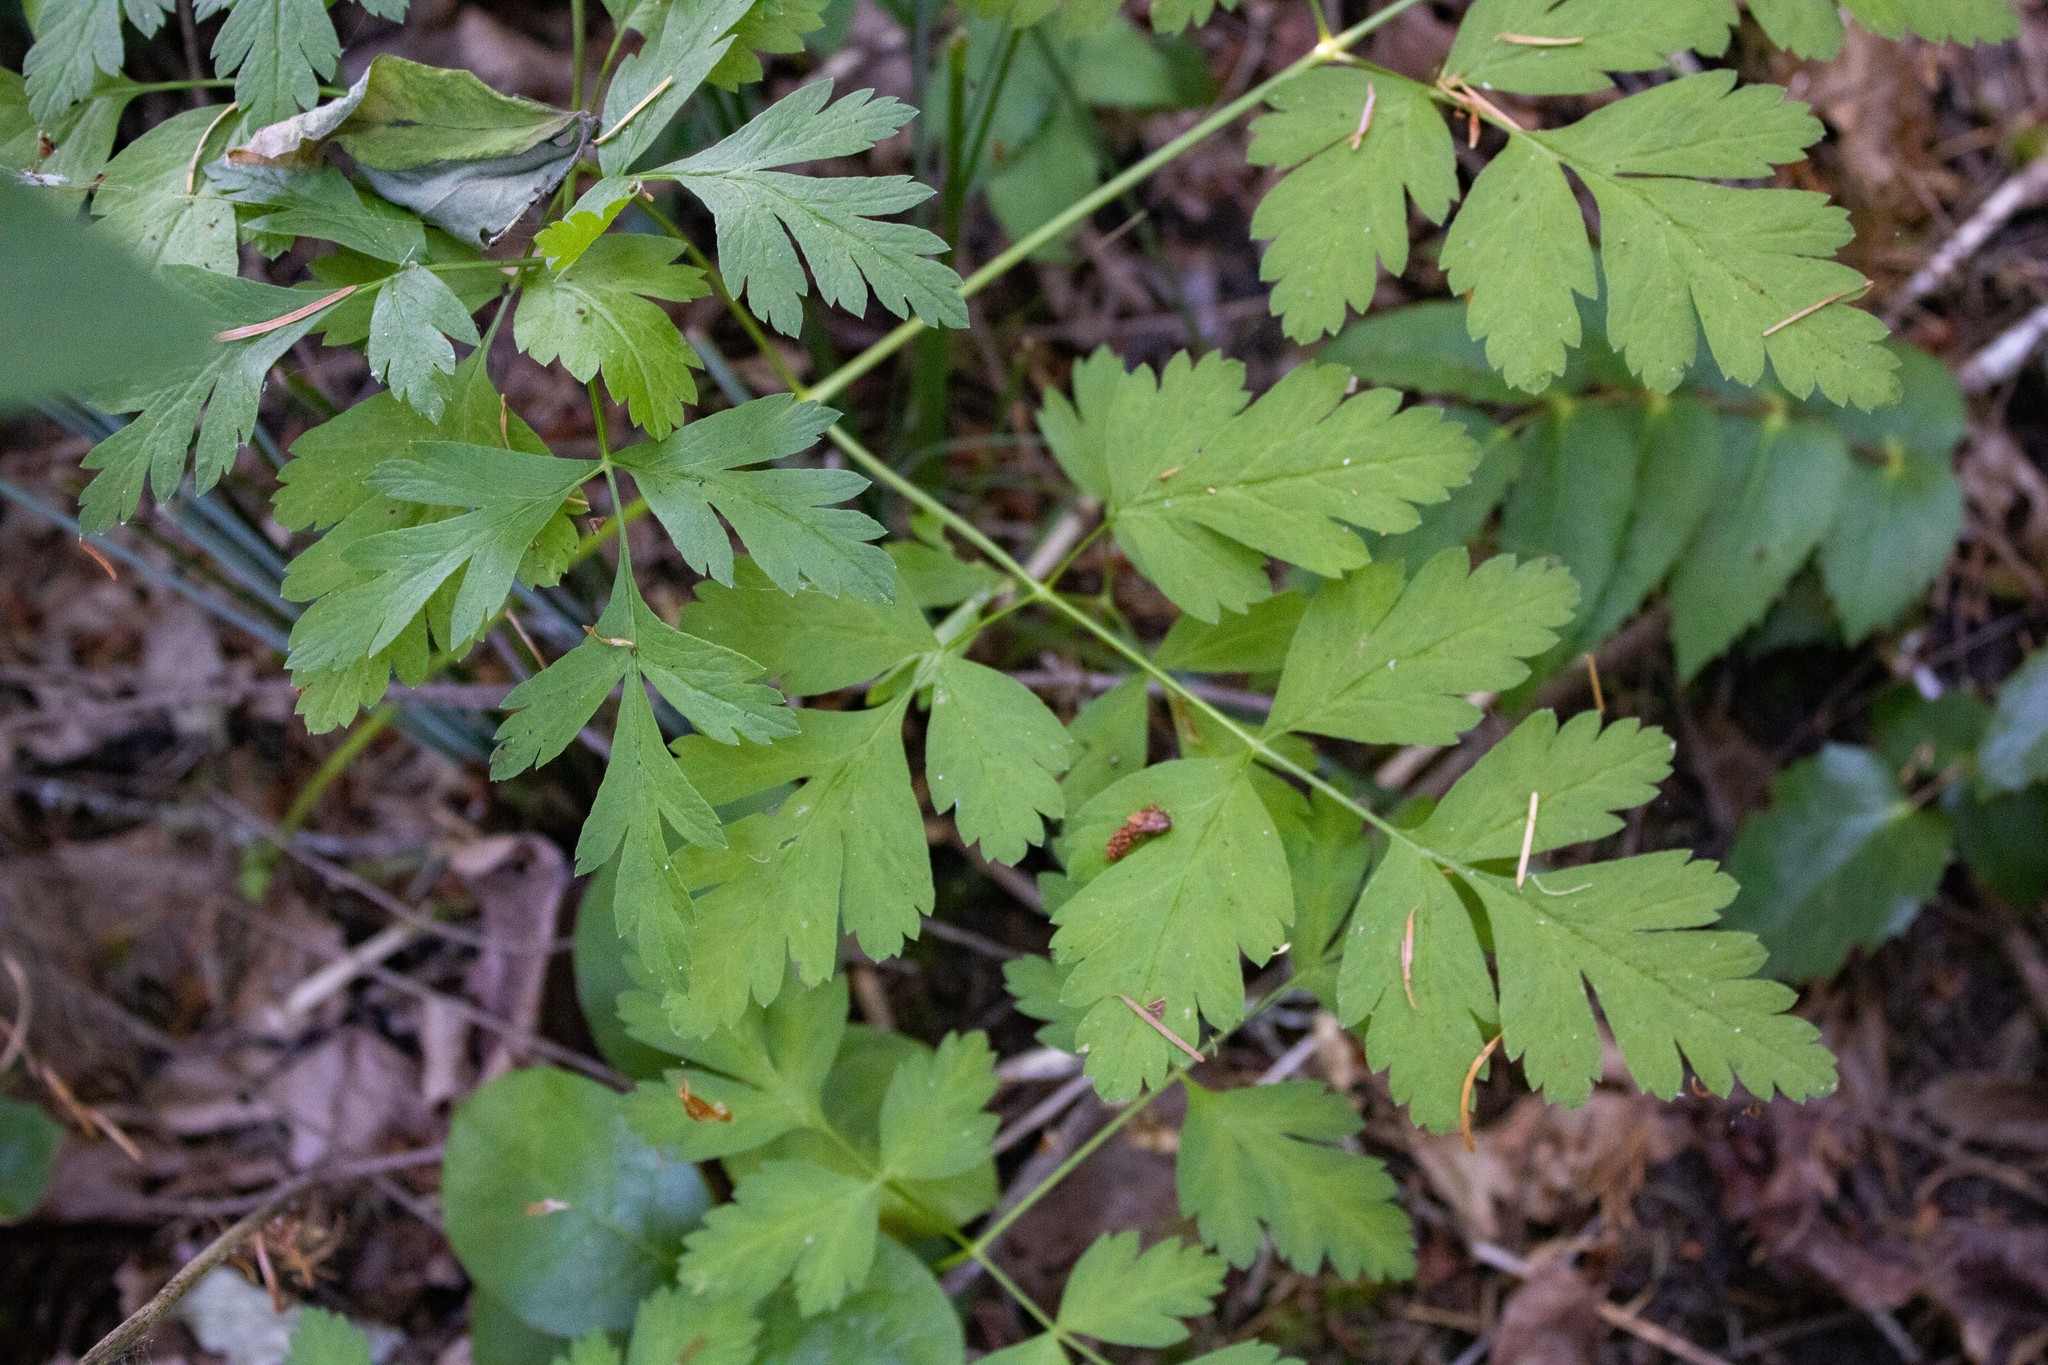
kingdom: Plantae
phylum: Tracheophyta
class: Magnoliopsida
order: Apiales
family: Apiaceae
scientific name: Apiaceae
